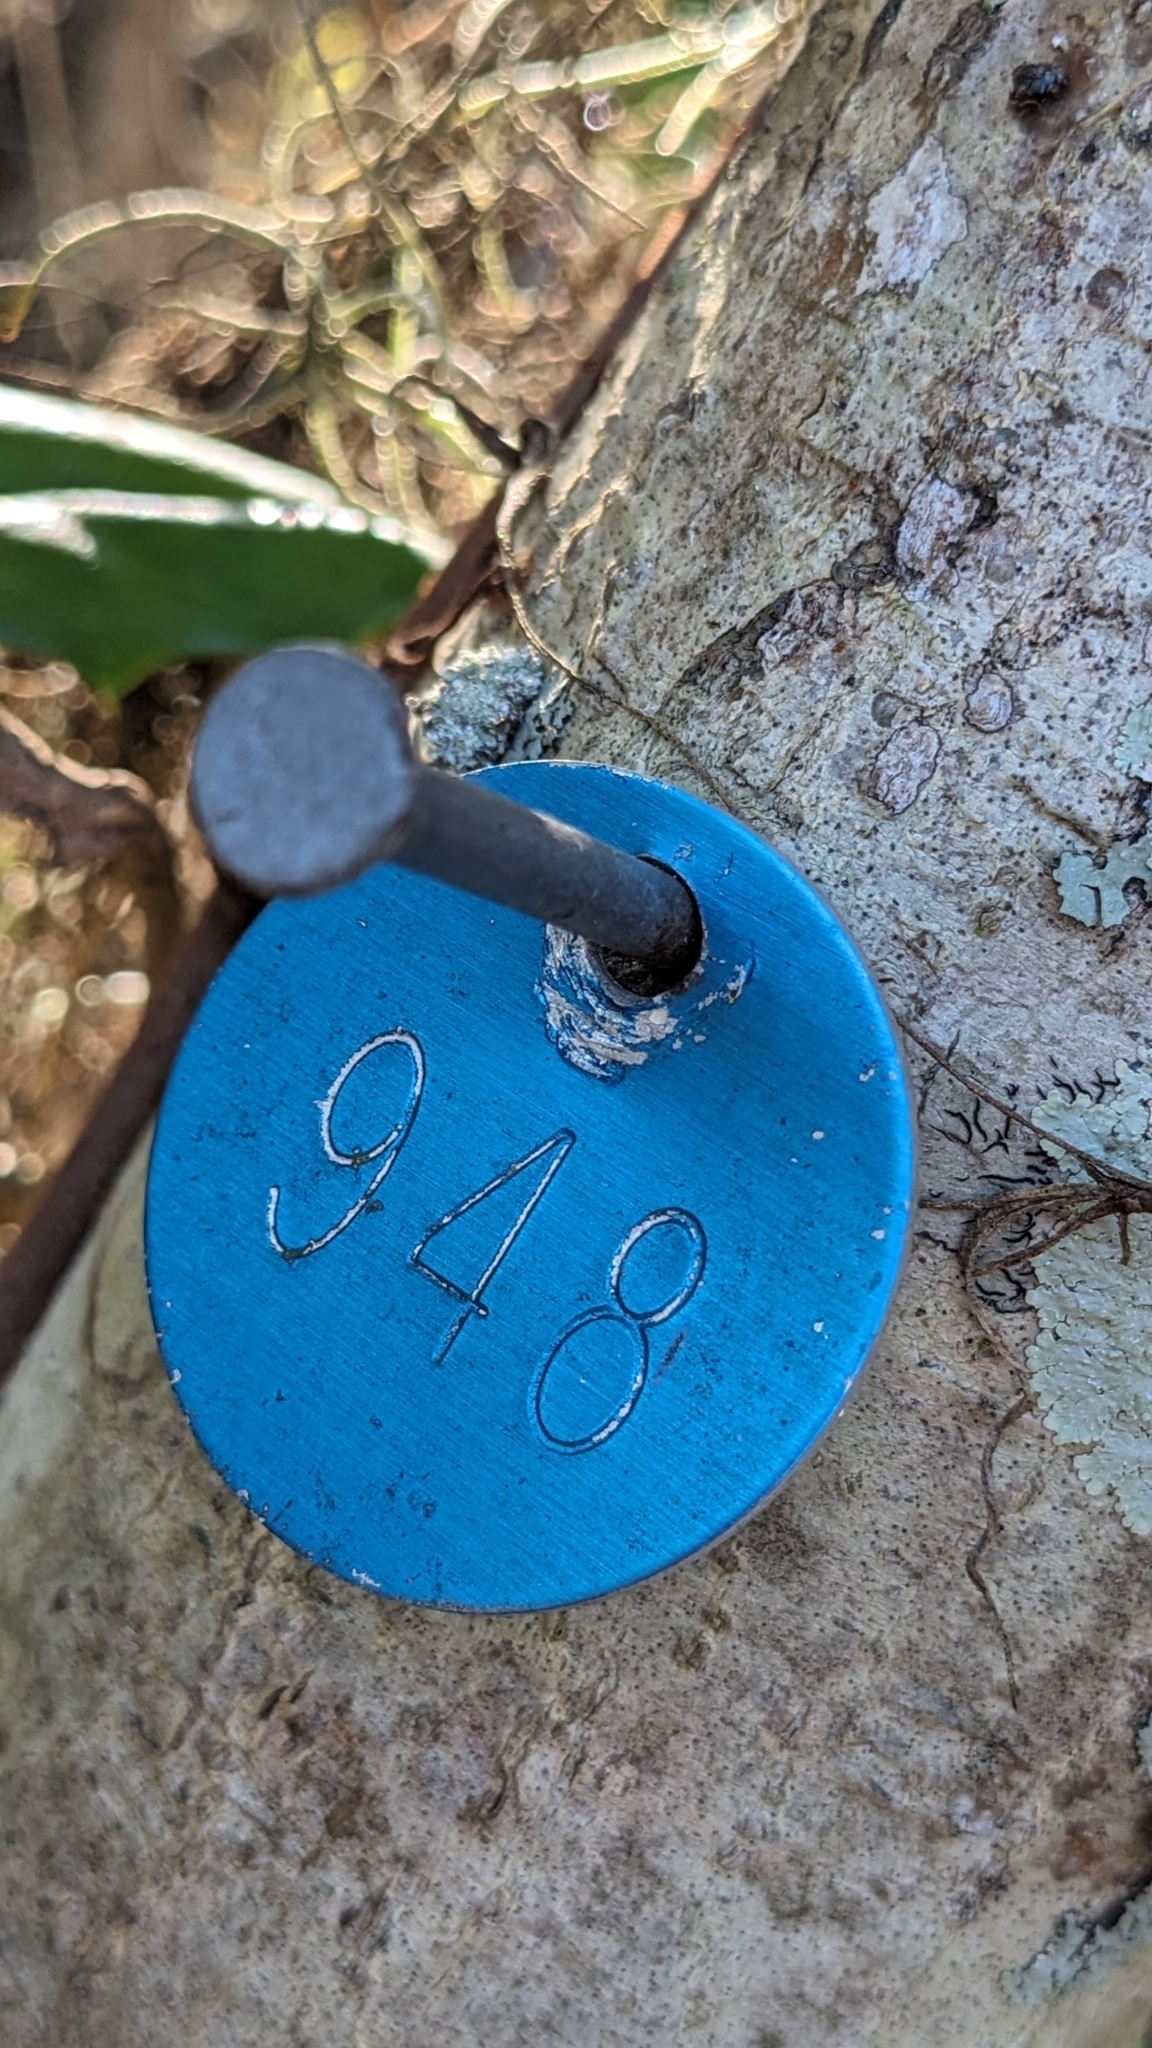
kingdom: Plantae
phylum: Tracheophyta
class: Magnoliopsida
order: Aquifoliales
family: Aquifoliaceae
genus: Ilex
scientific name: Ilex opaca
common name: American holly
